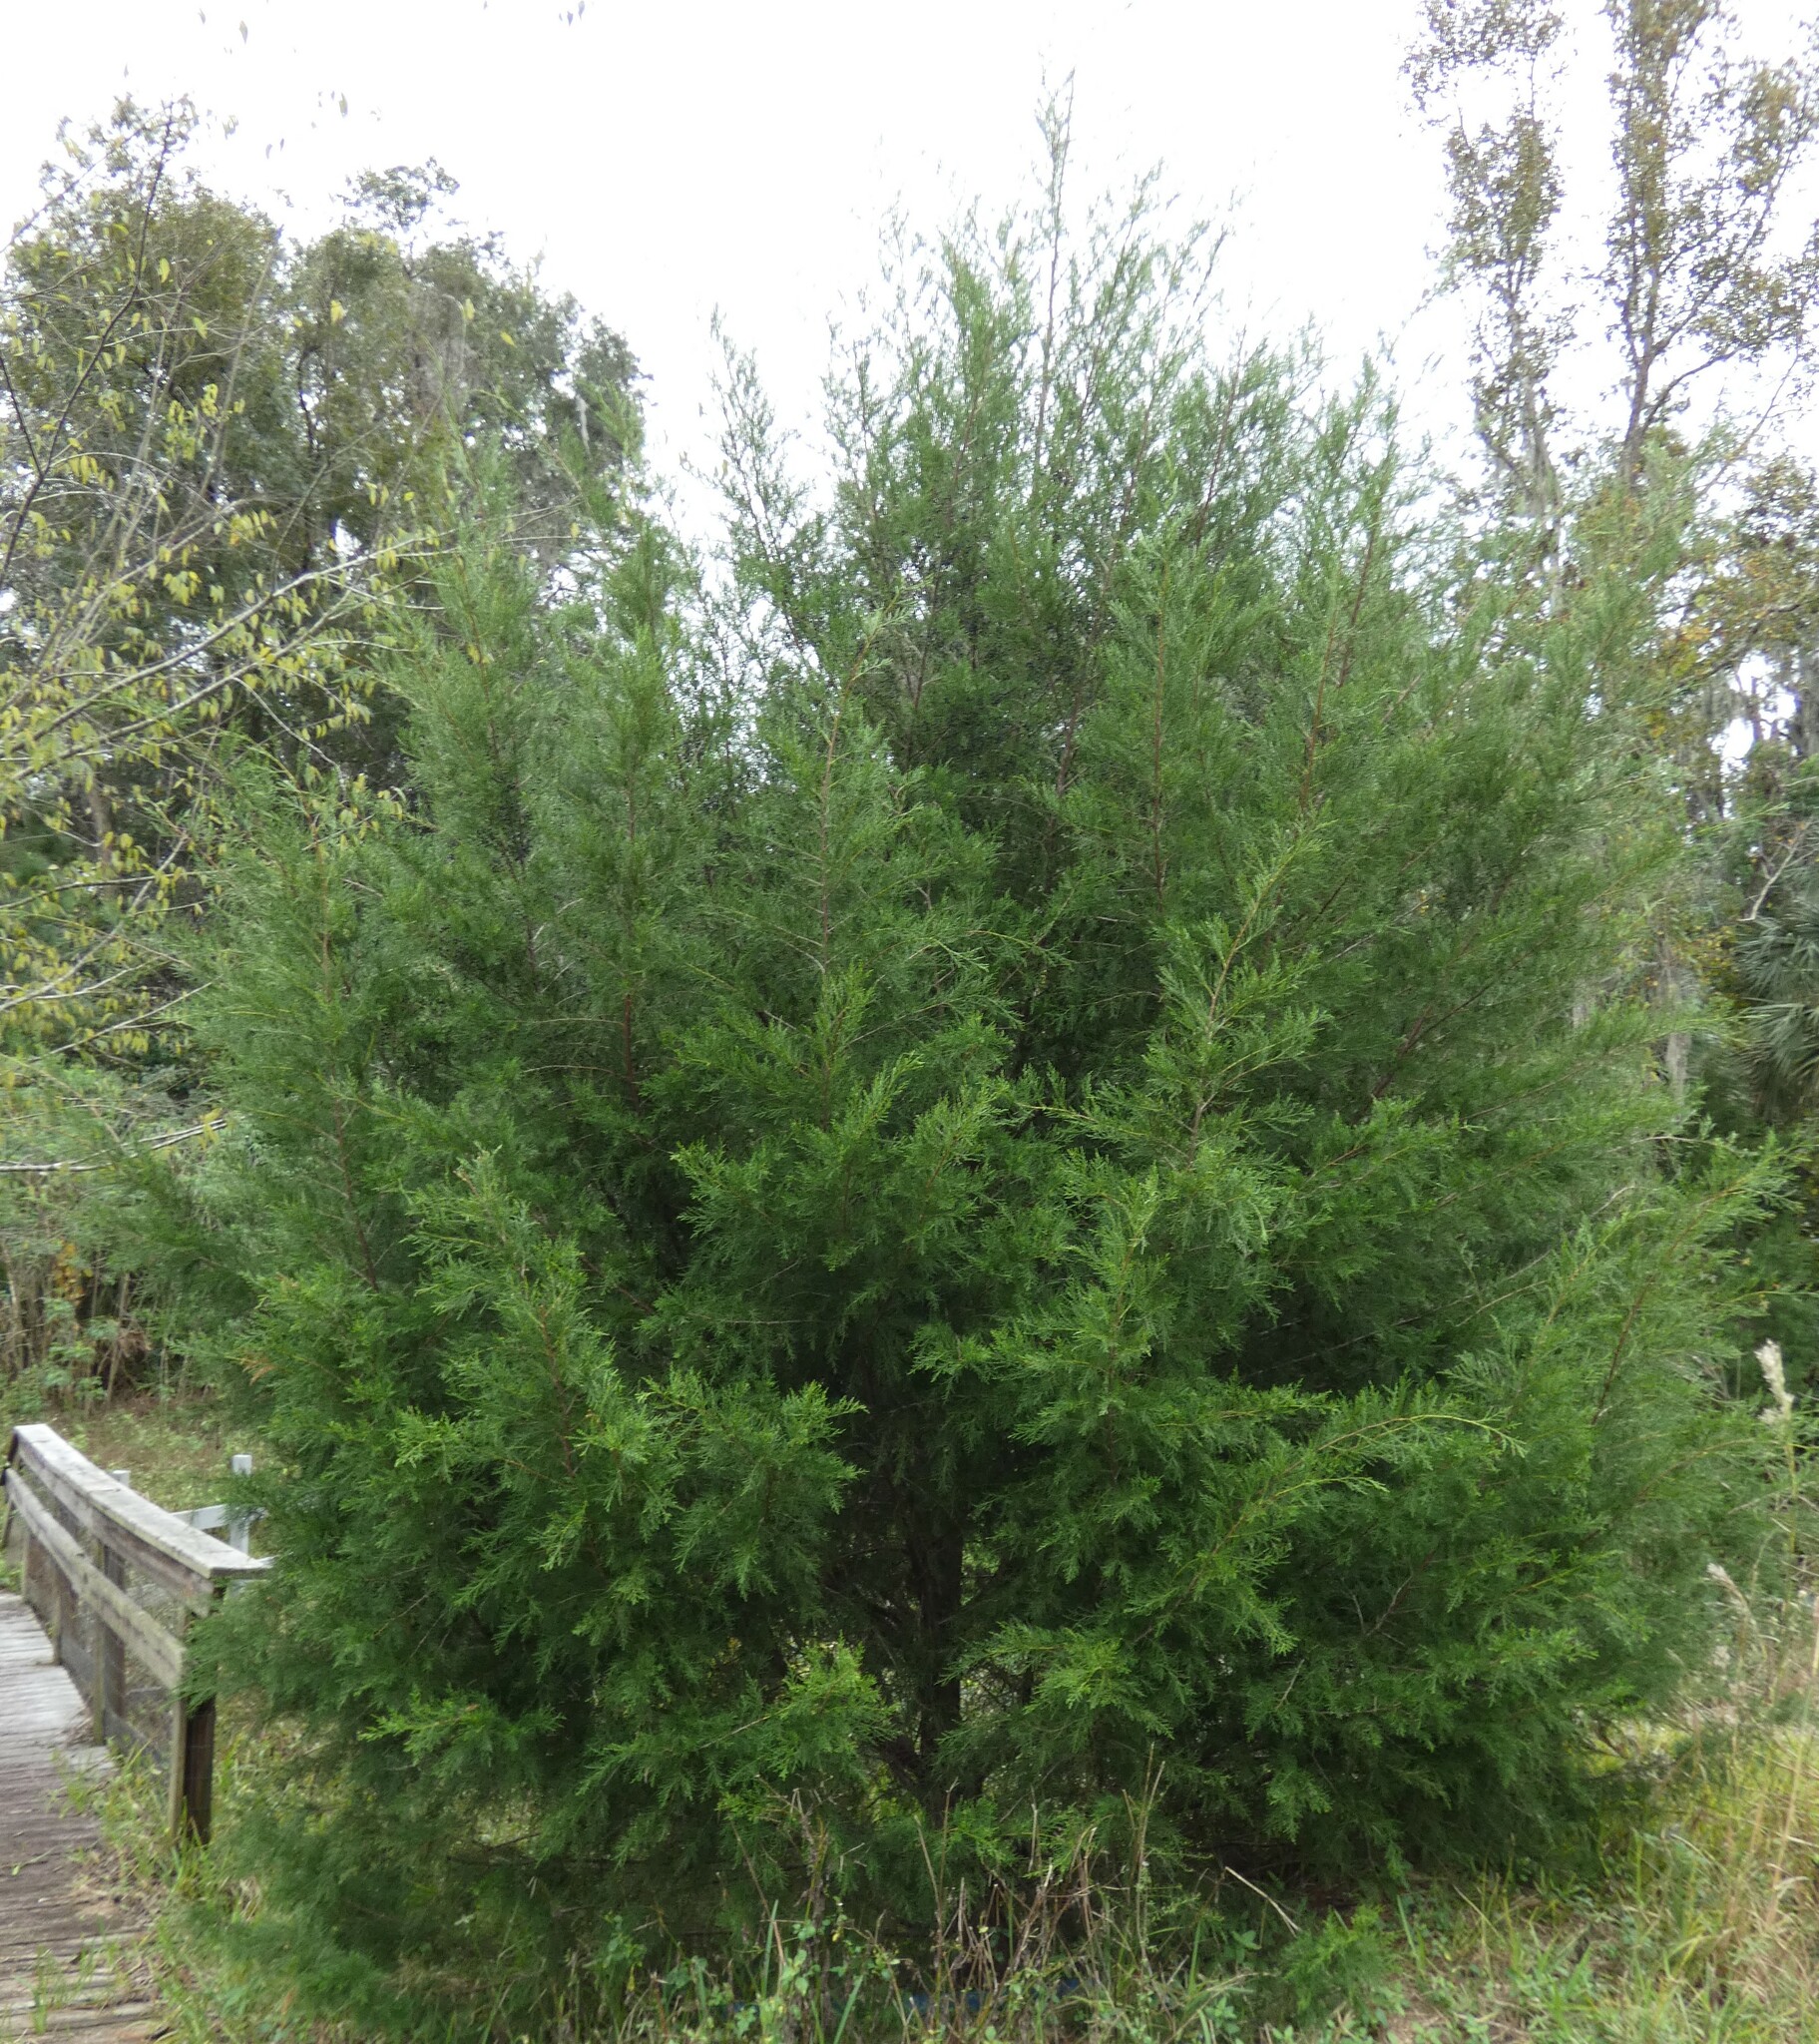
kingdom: Plantae
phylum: Tracheophyta
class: Pinopsida
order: Pinales
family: Cupressaceae
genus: Juniperus
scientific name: Juniperus virginiana
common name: Red juniper
